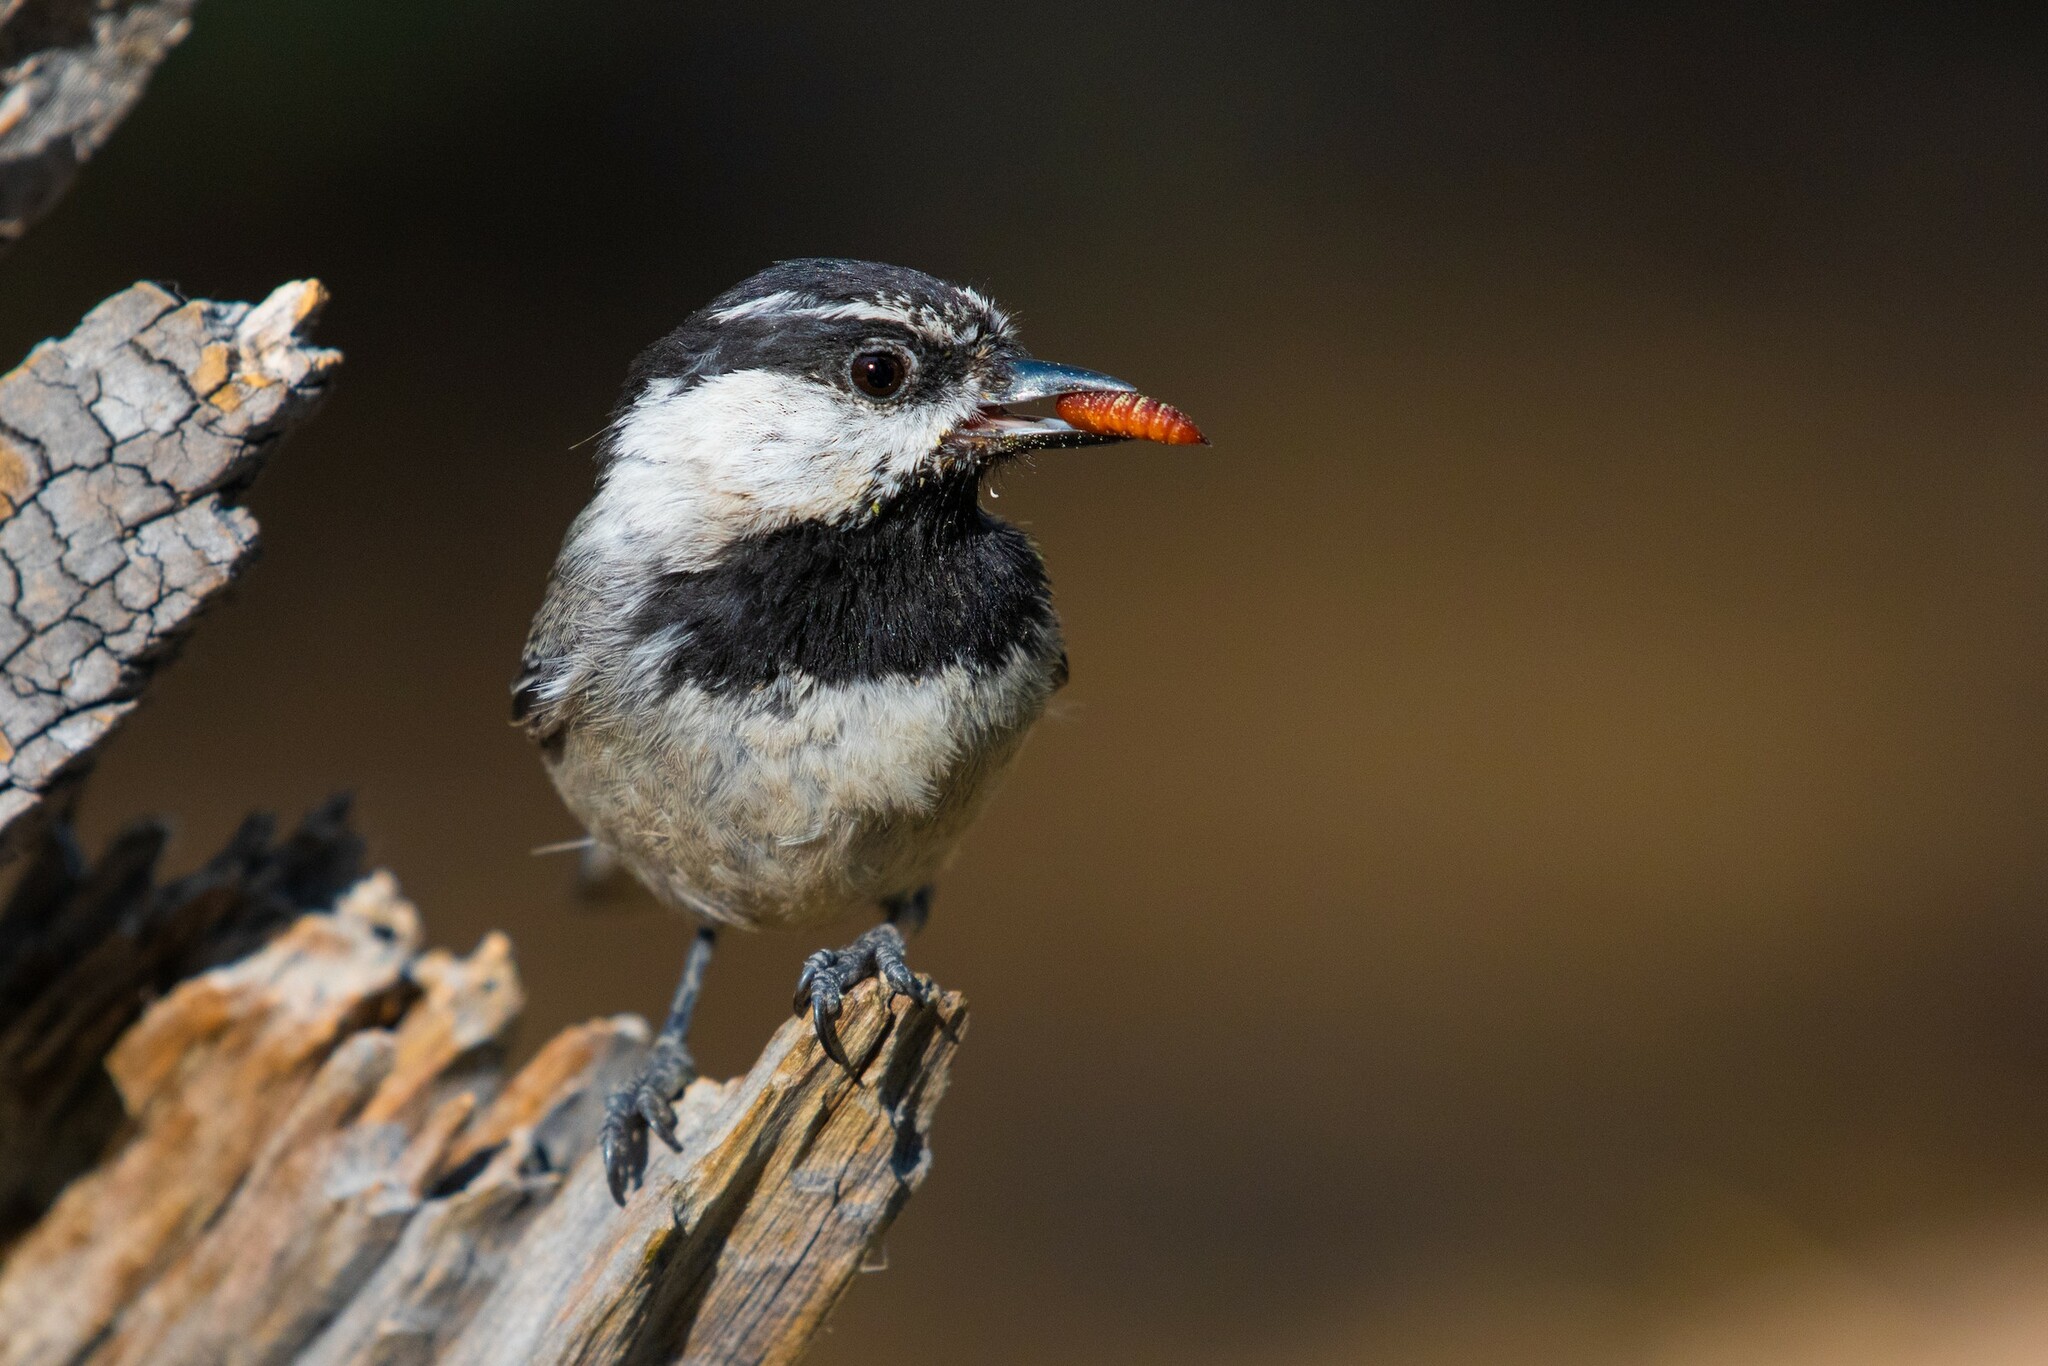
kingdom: Animalia
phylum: Chordata
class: Aves
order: Passeriformes
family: Paridae
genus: Poecile
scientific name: Poecile gambeli
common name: Mountain chickadee
